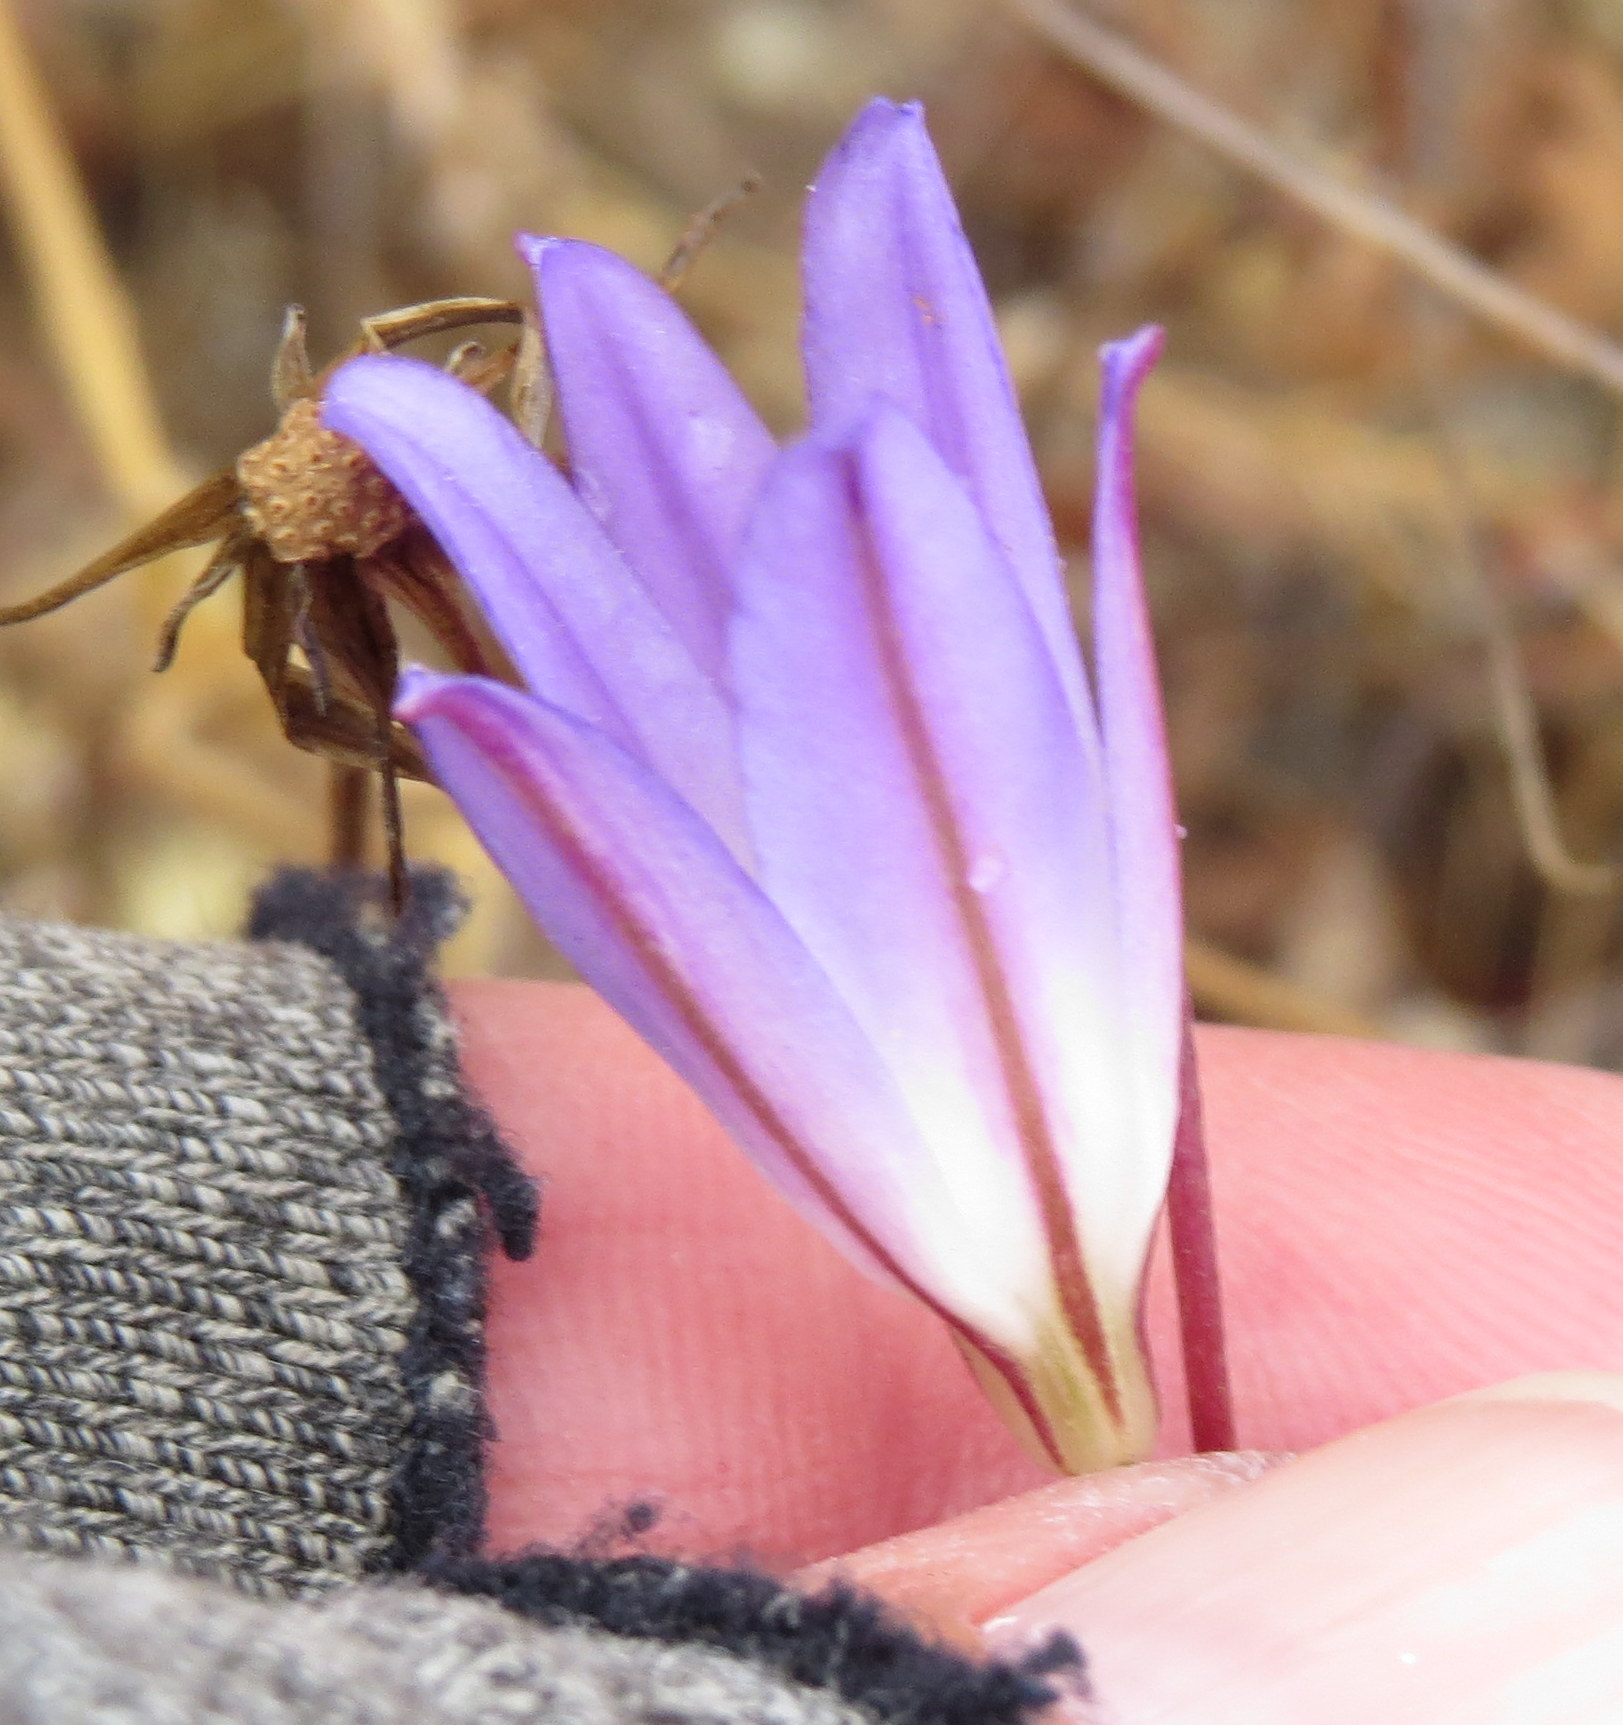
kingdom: Plantae
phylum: Tracheophyta
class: Liliopsida
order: Asparagales
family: Asparagaceae
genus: Brodiaea
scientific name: Brodiaea orcuttii
